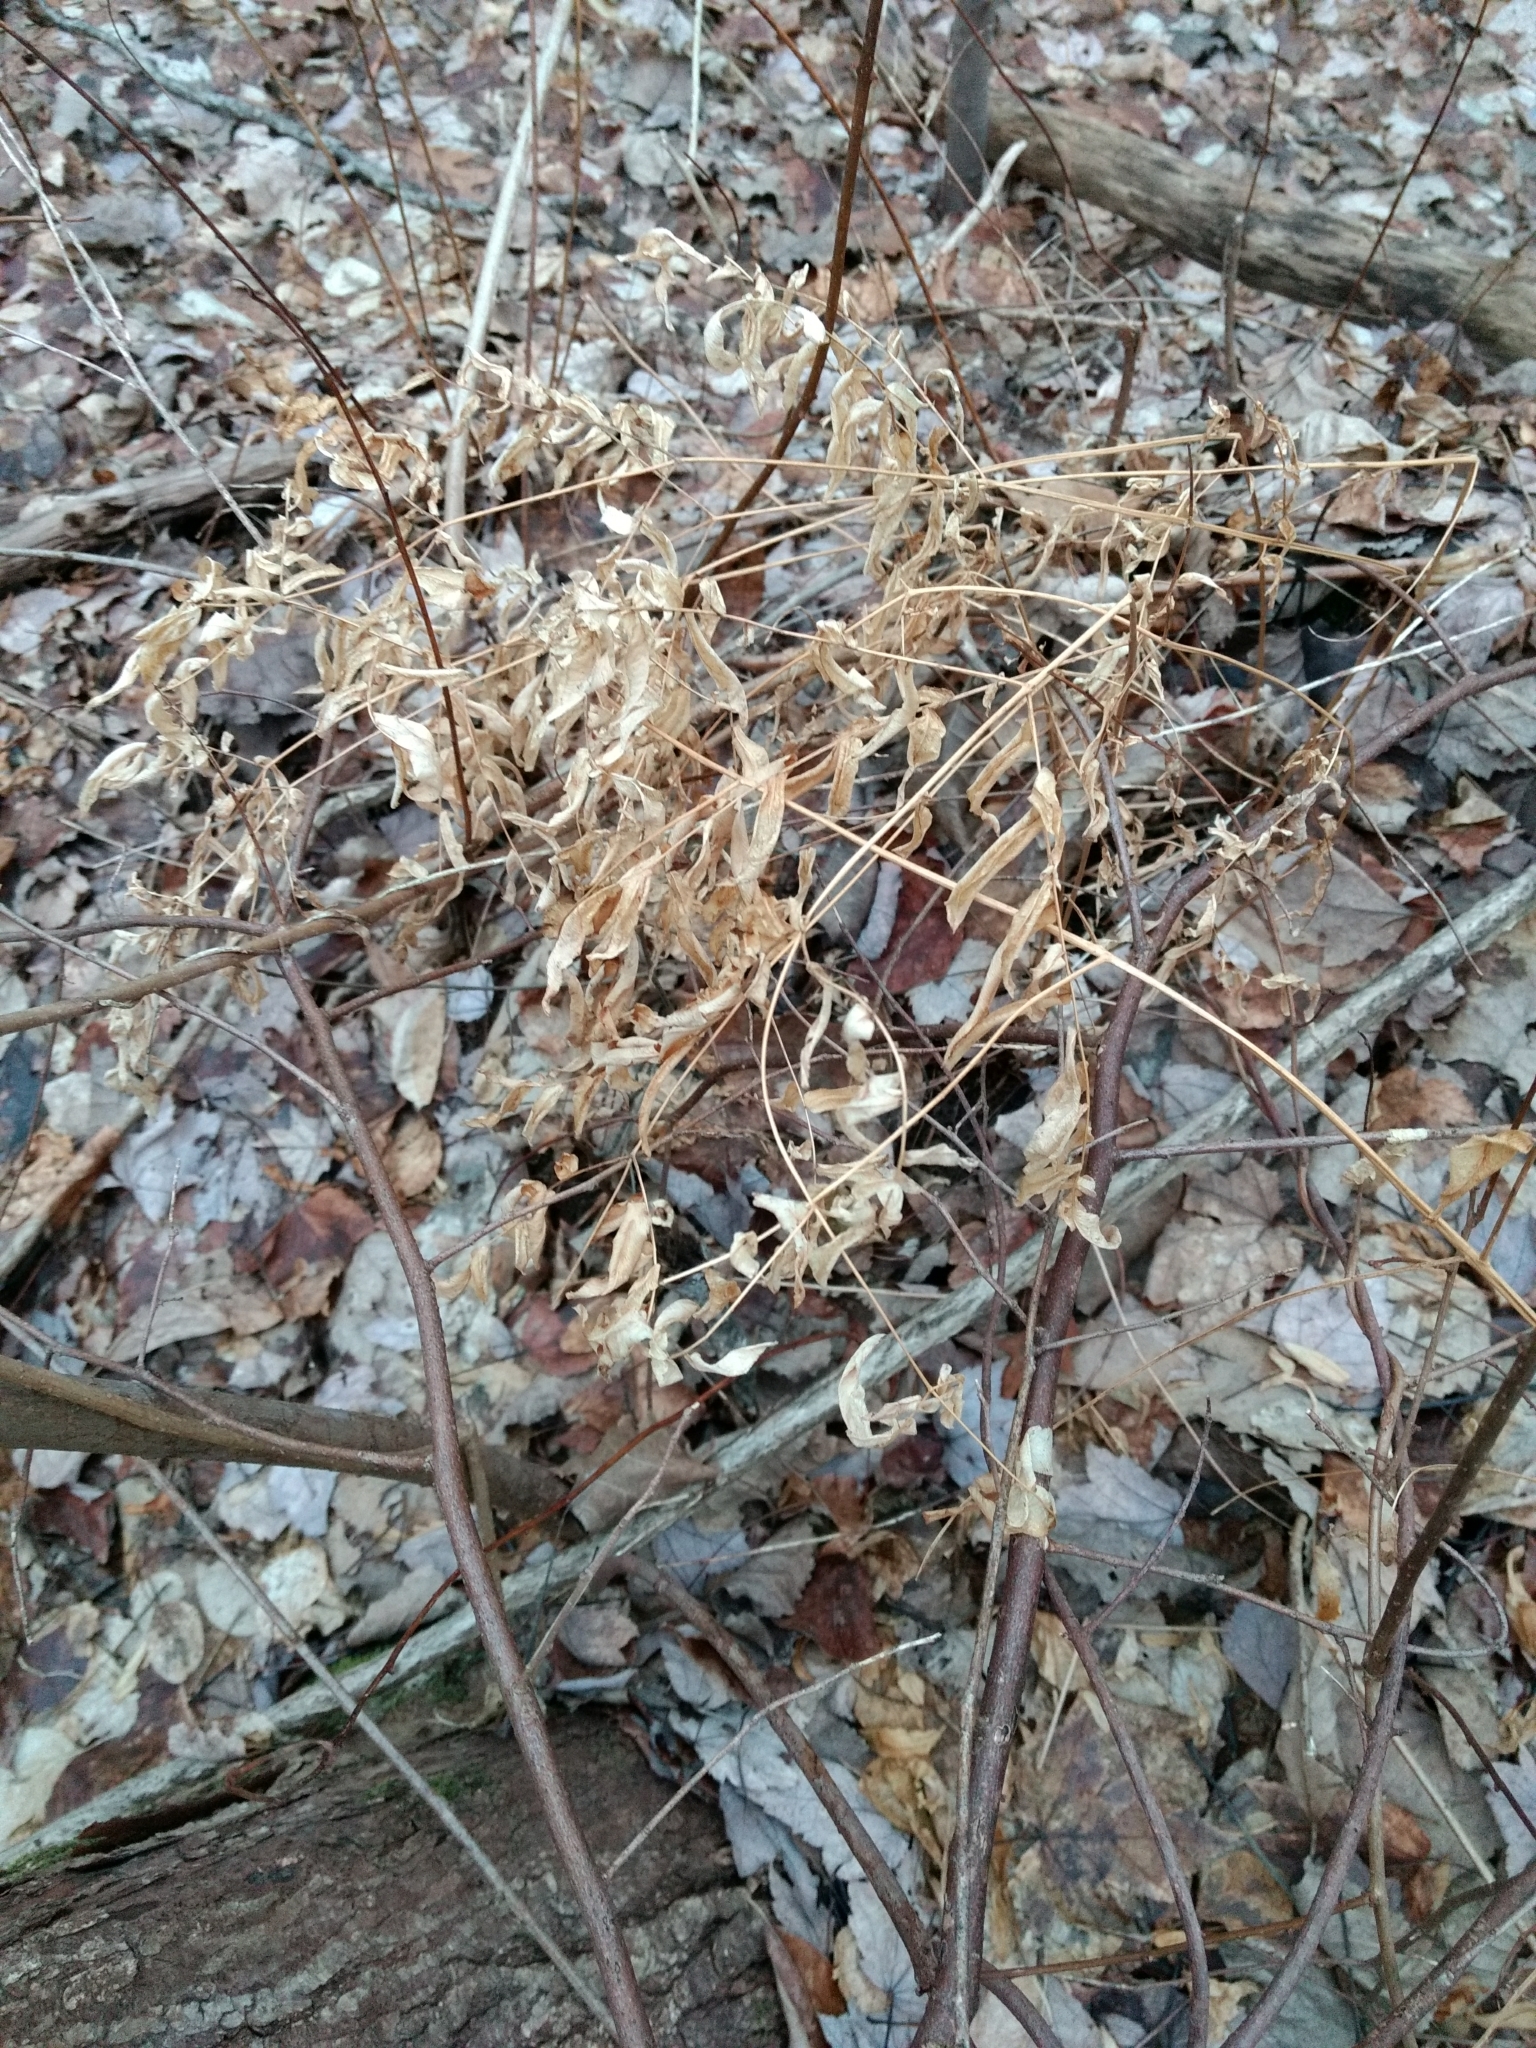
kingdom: Plantae
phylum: Tracheophyta
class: Polypodiopsida
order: Osmundales
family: Osmundaceae
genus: Osmunda
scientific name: Osmunda spectabilis
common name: American royal fern
